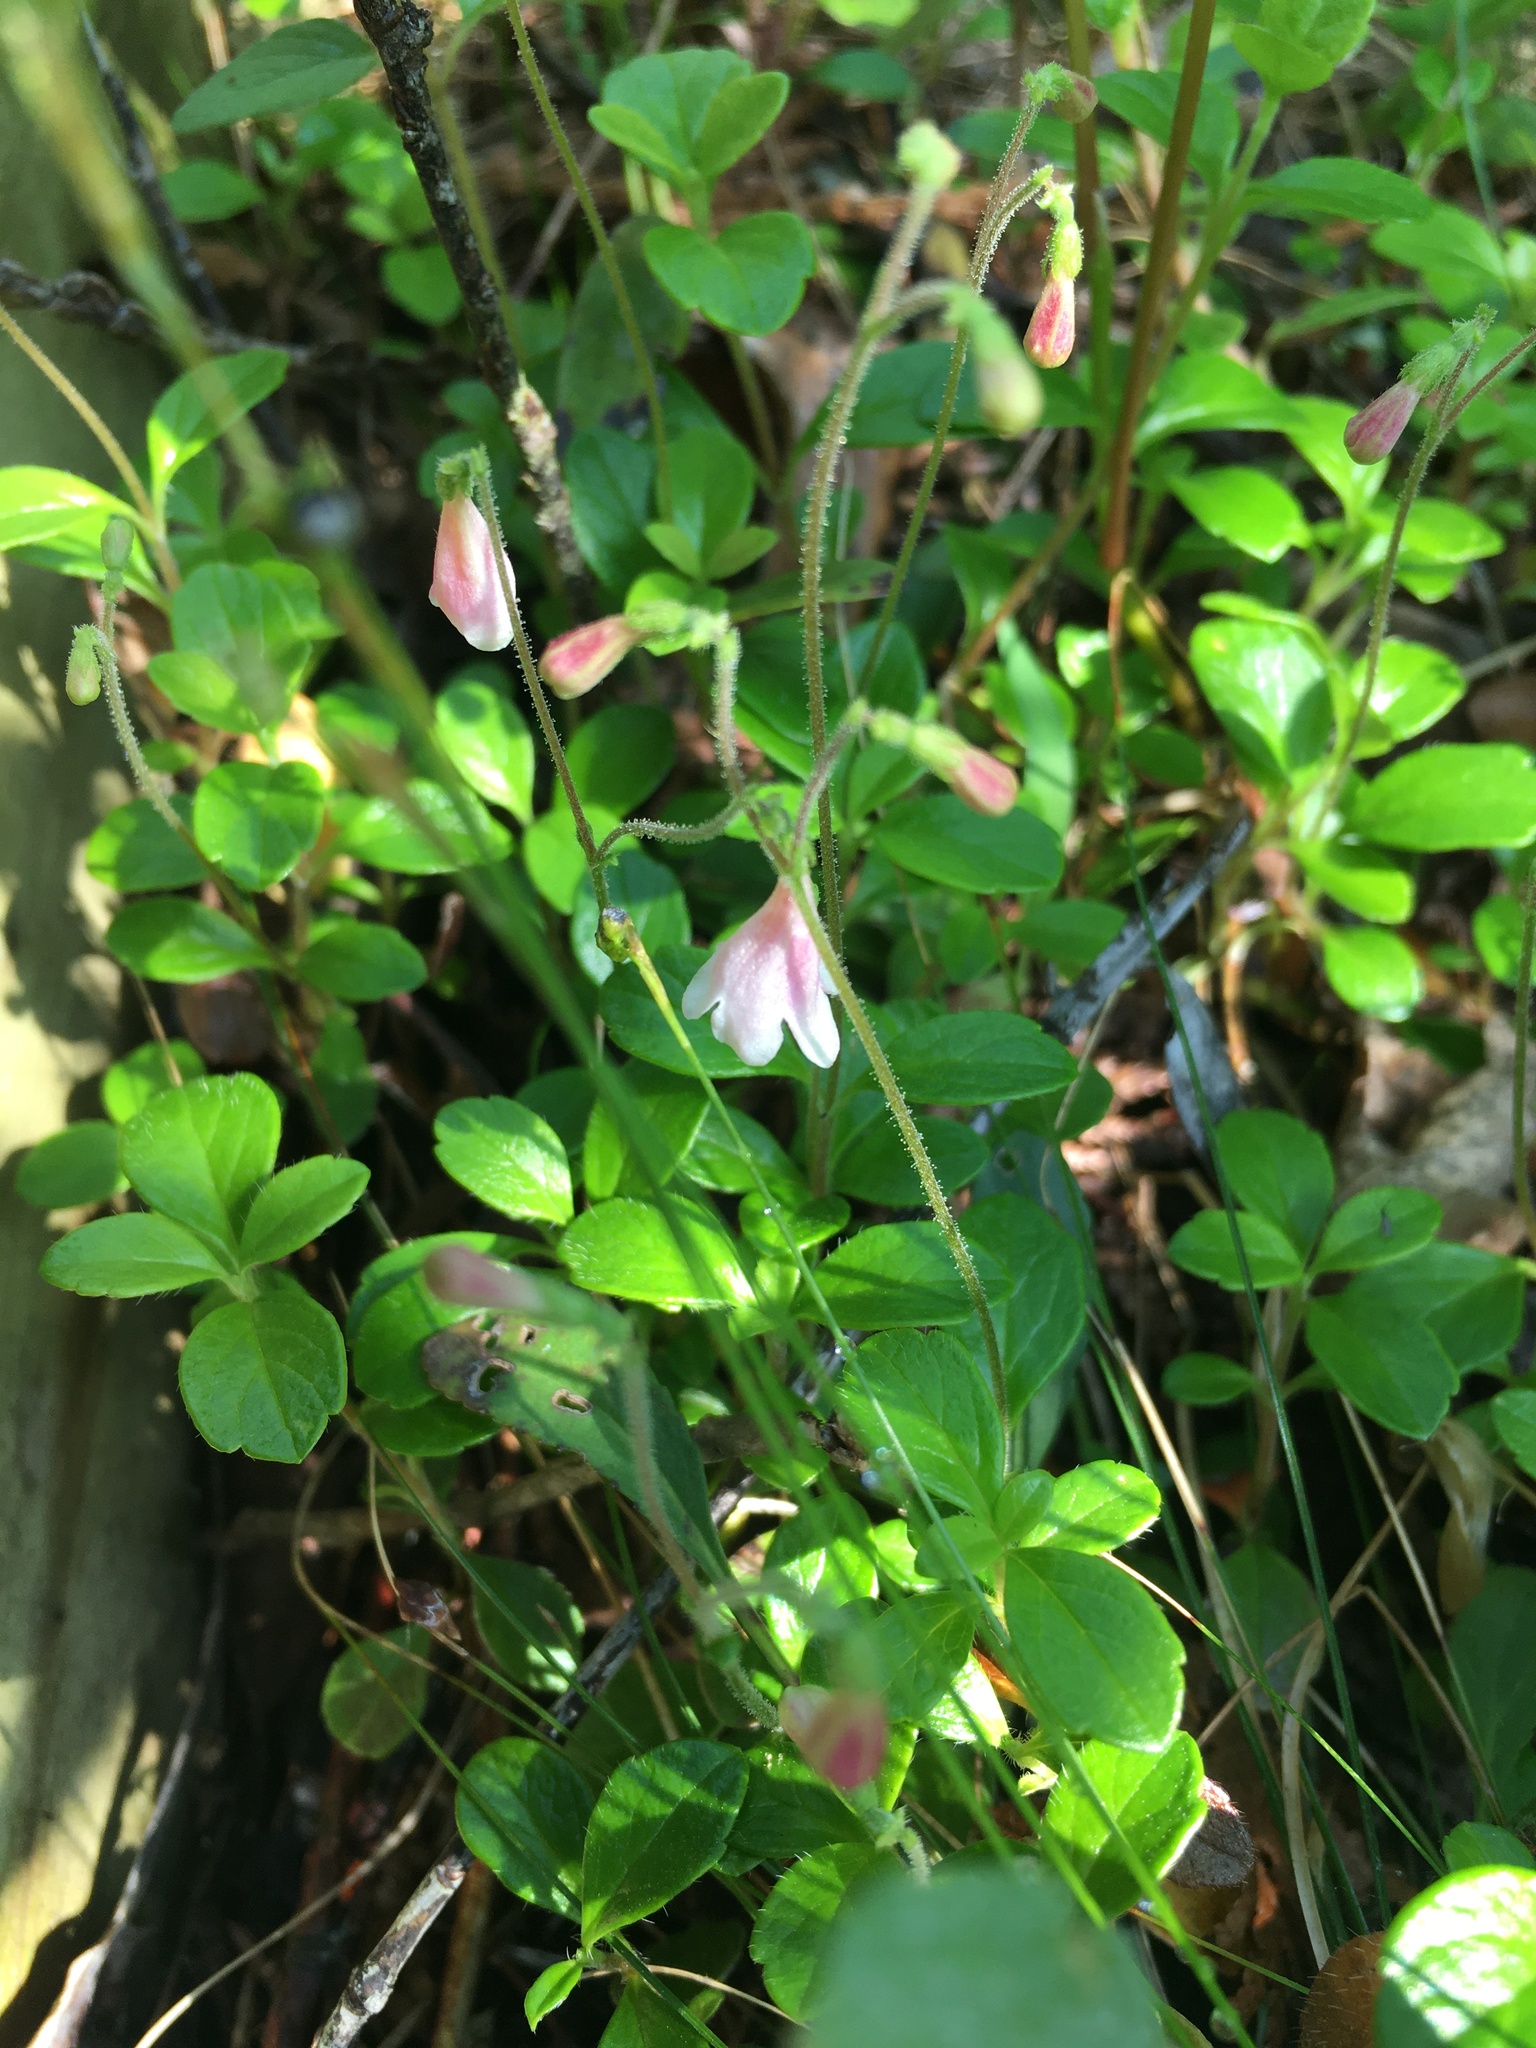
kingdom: Plantae
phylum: Tracheophyta
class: Magnoliopsida
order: Dipsacales
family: Caprifoliaceae
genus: Linnaea
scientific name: Linnaea borealis
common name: Twinflower
